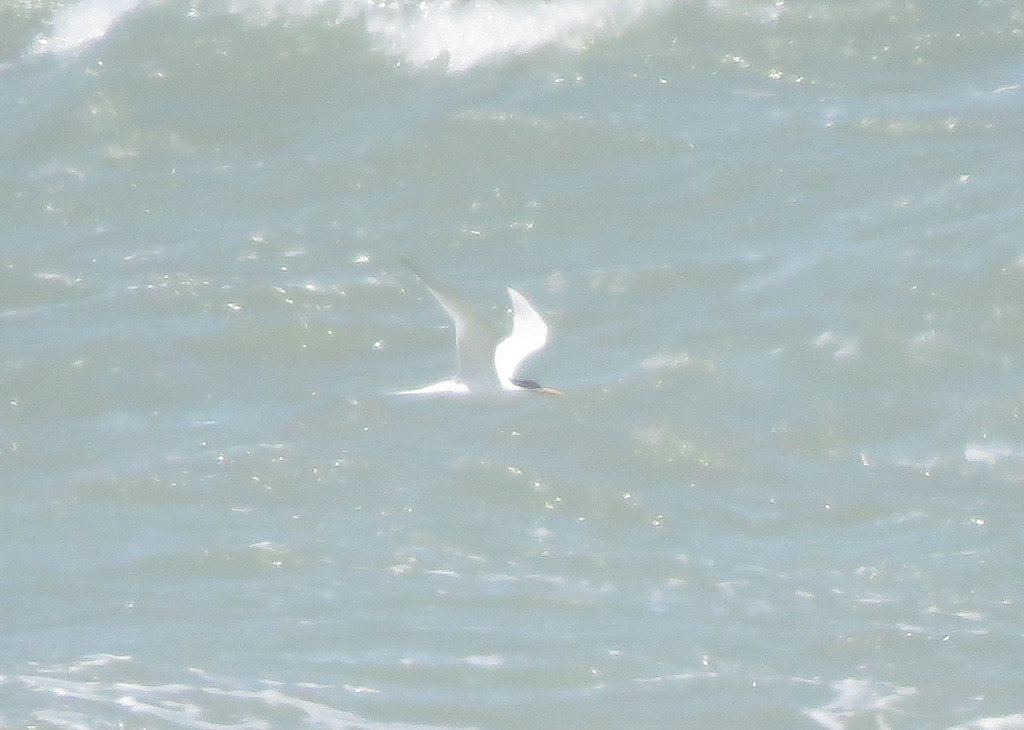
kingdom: Animalia
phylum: Chordata
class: Aves
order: Charadriiformes
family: Laridae
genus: Thalasseus
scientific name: Thalasseus sandvicensis
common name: Sandwich tern
